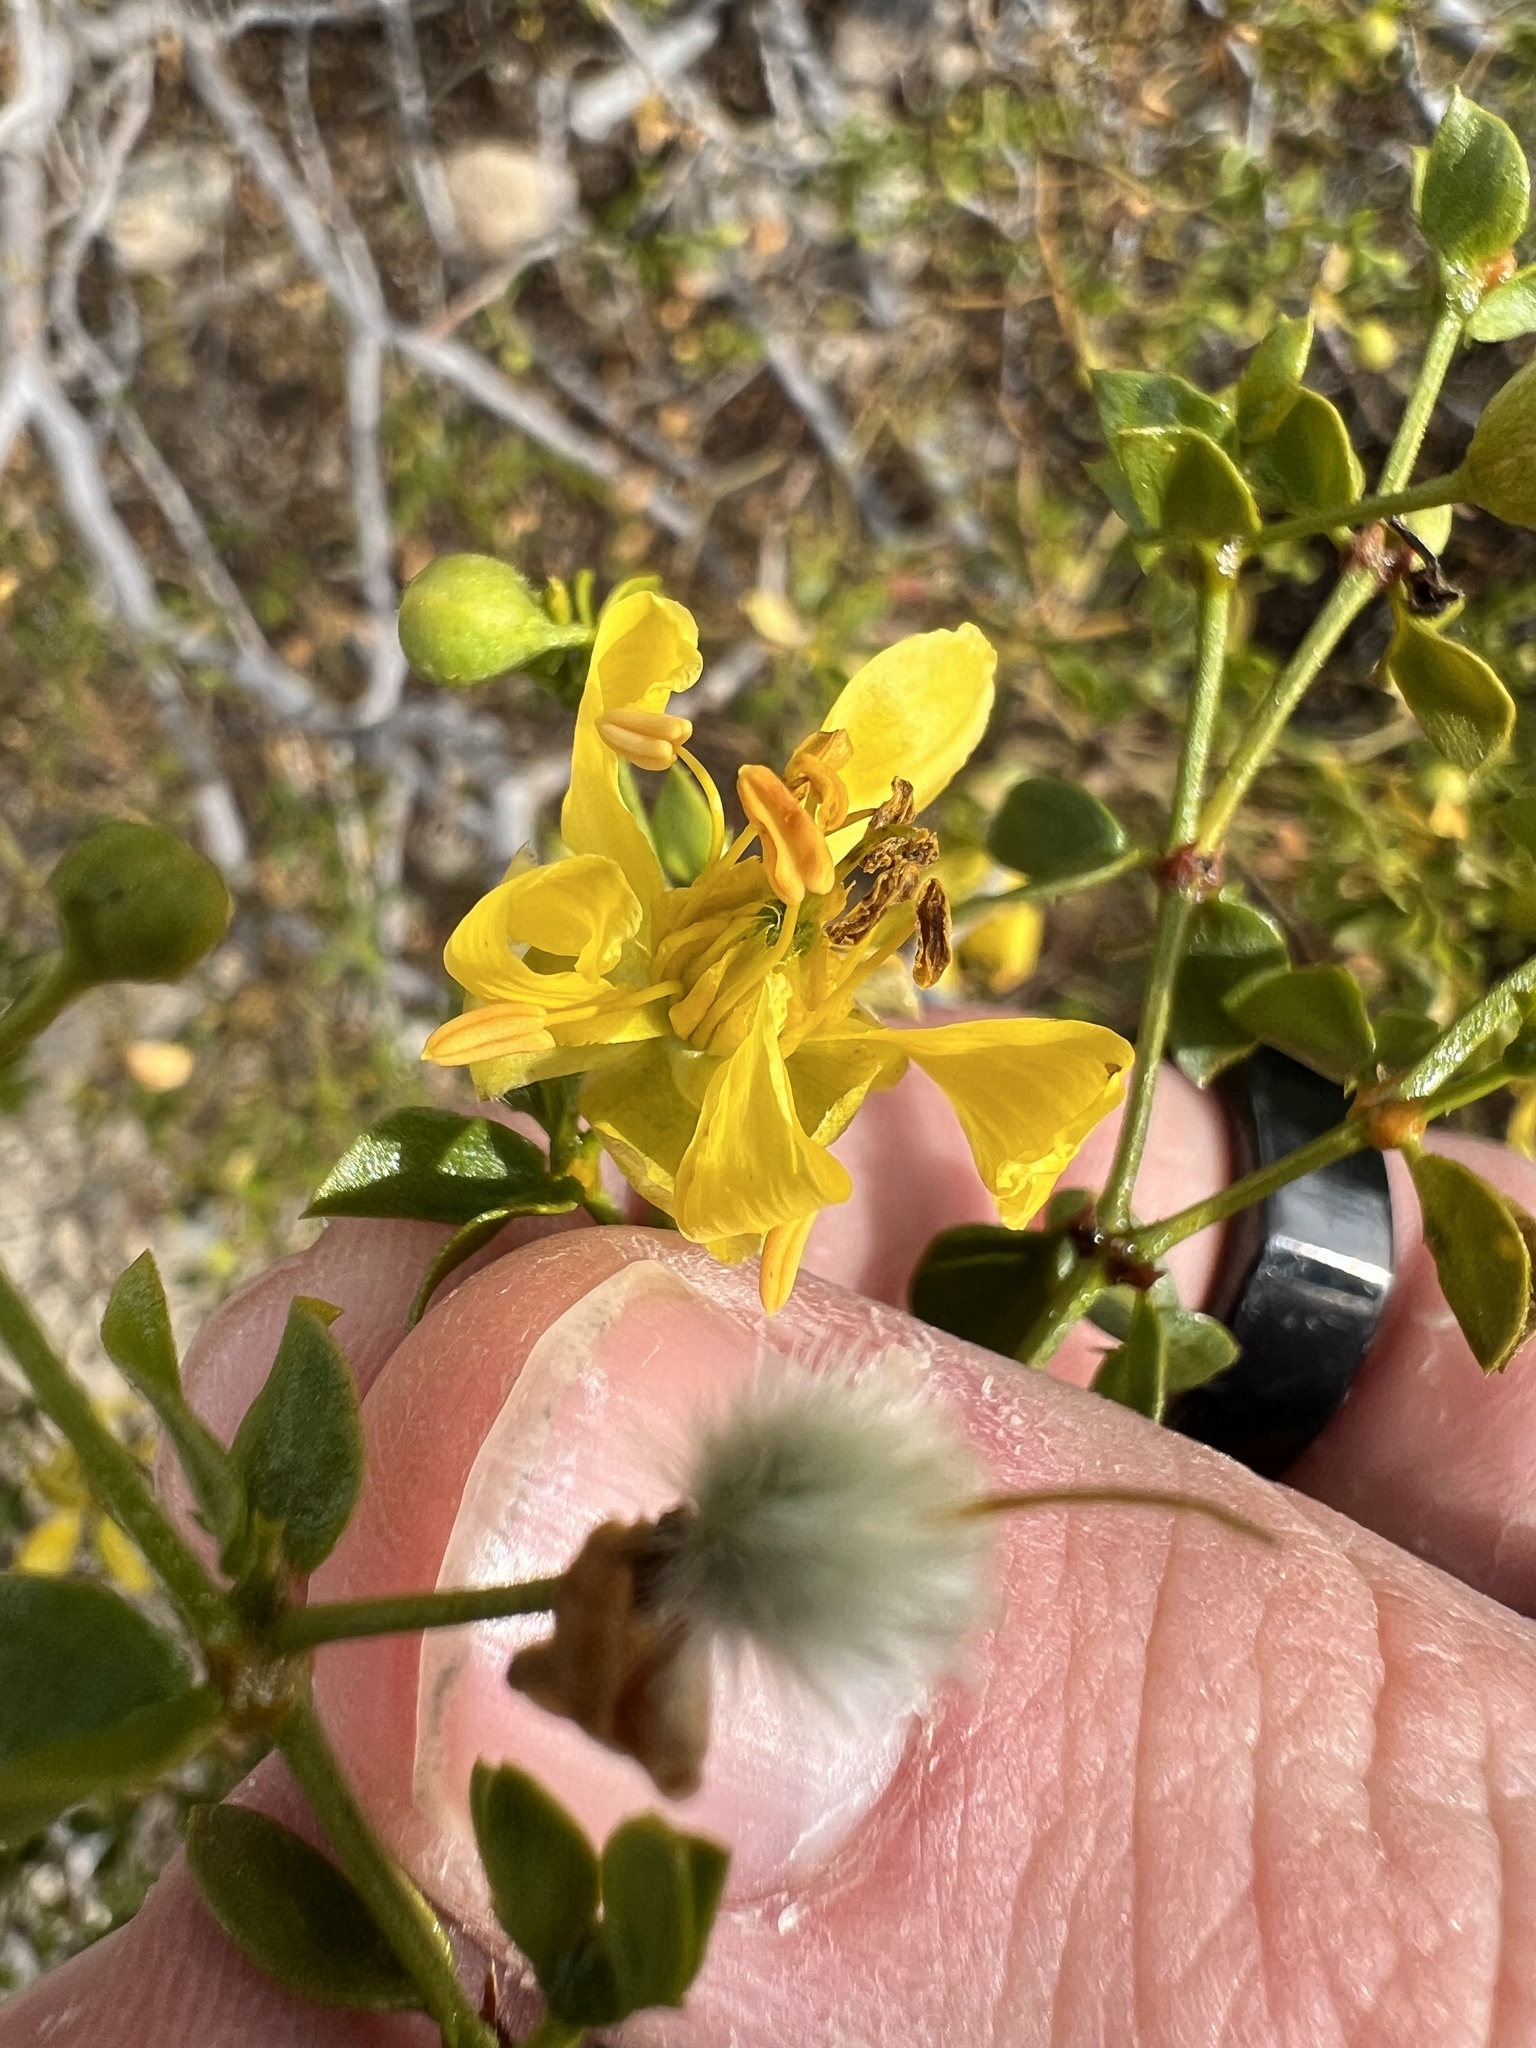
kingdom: Plantae
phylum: Tracheophyta
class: Magnoliopsida
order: Zygophyllales
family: Zygophyllaceae
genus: Larrea
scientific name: Larrea tridentata
